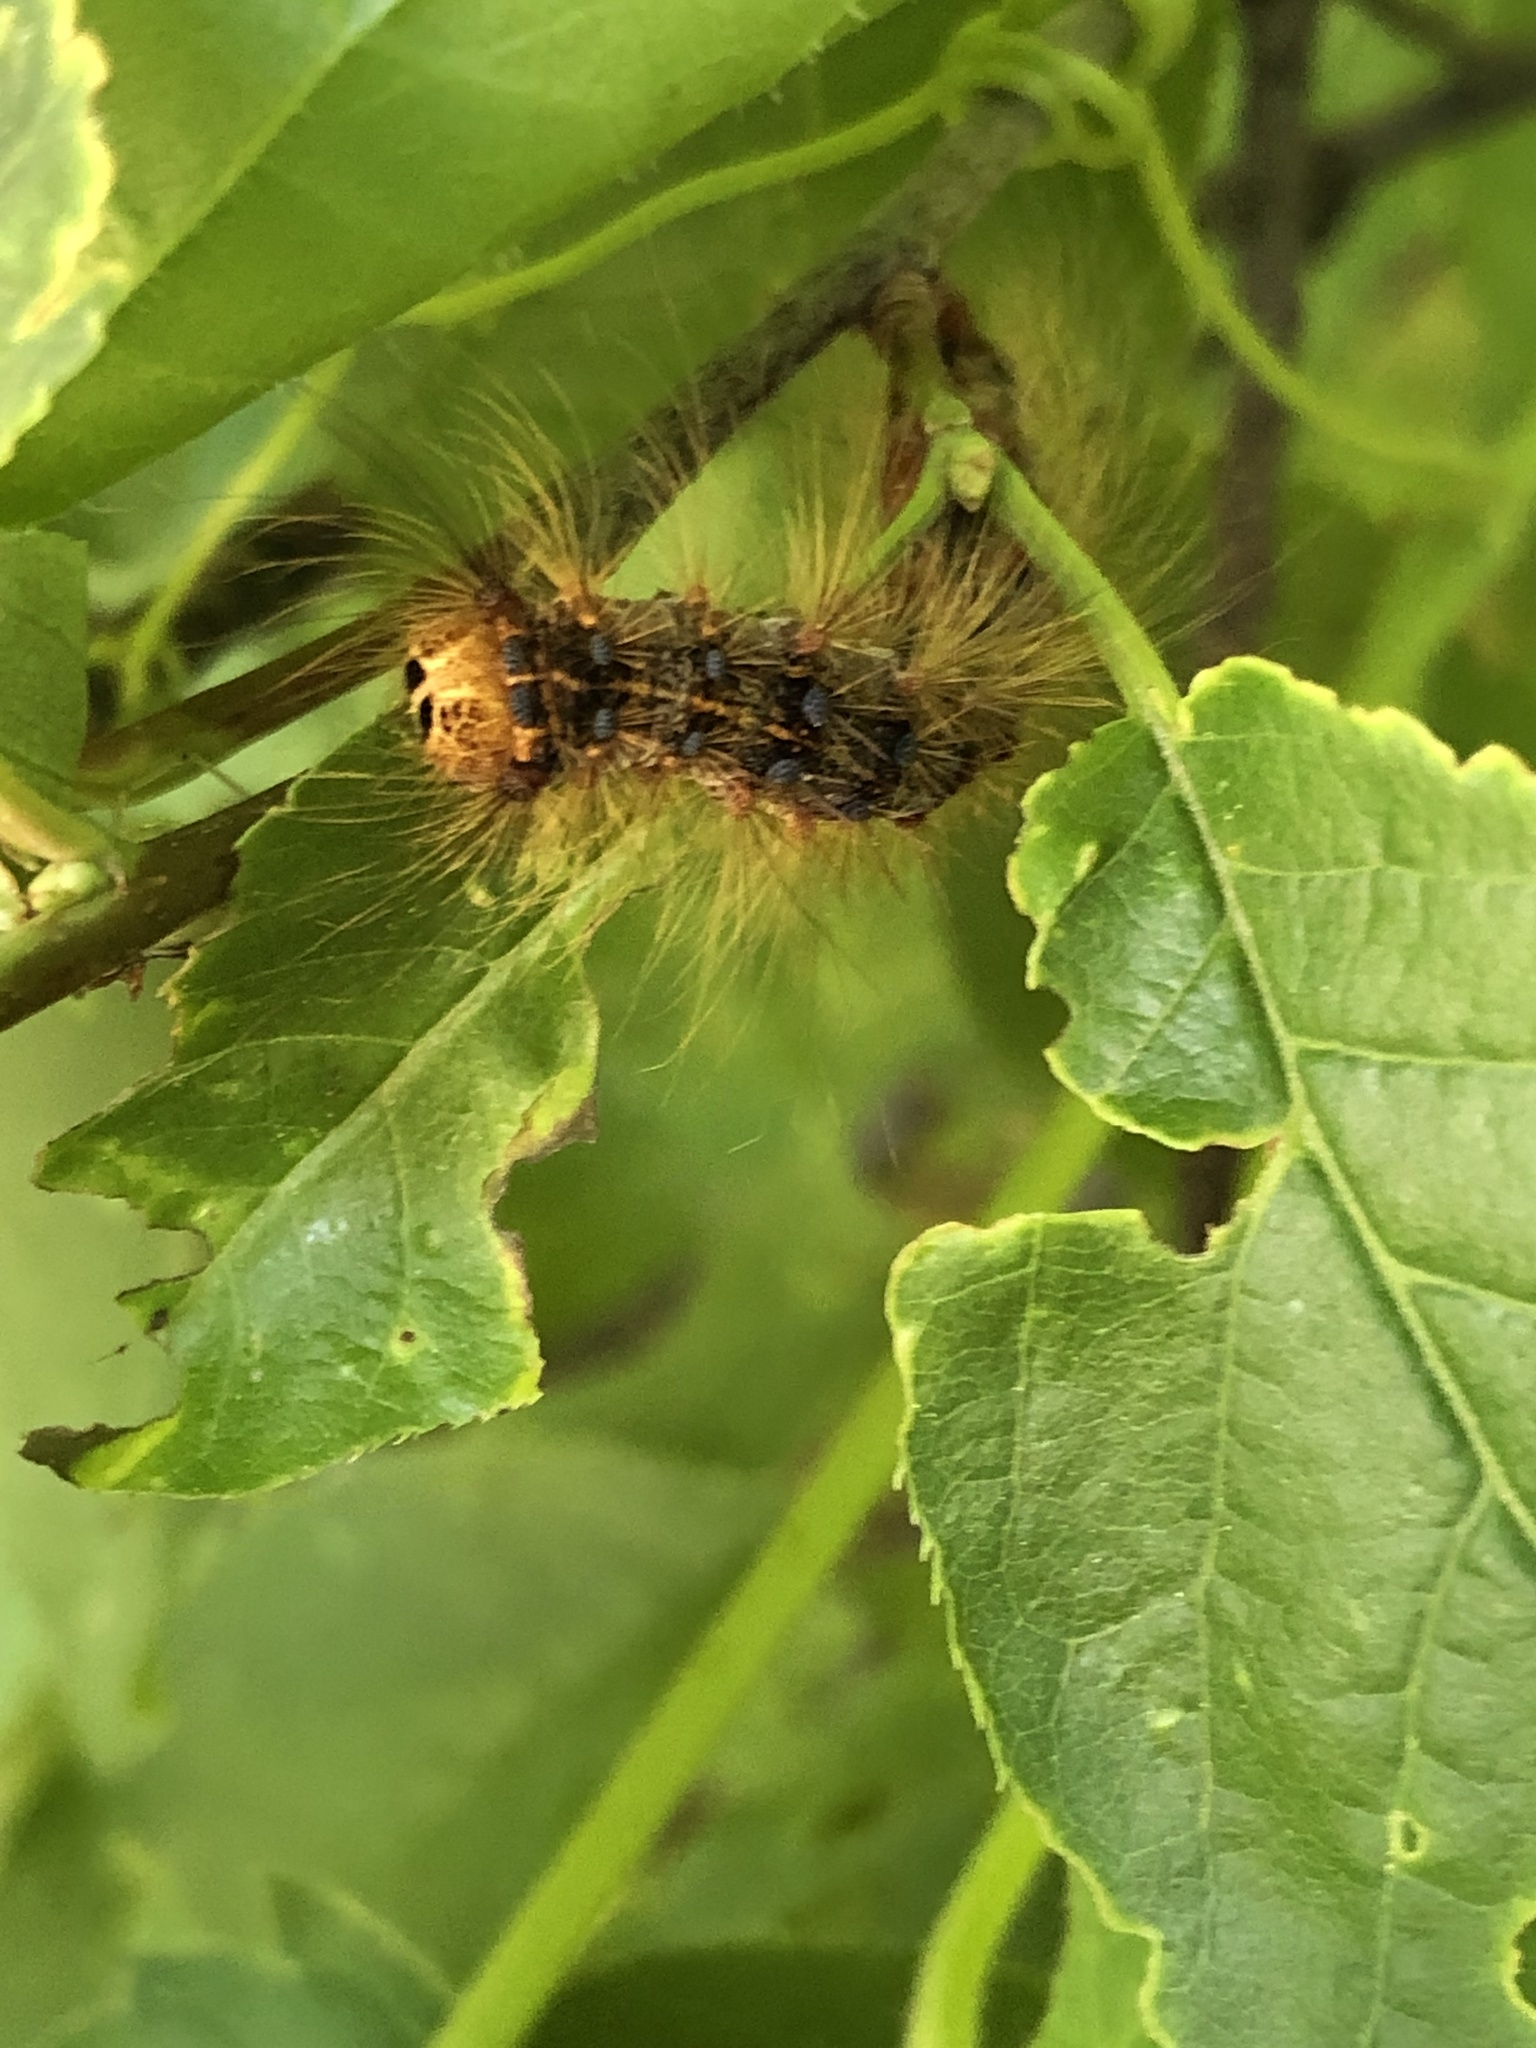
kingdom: Animalia
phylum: Arthropoda
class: Insecta
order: Lepidoptera
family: Erebidae
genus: Lymantria
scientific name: Lymantria dispar
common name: Gypsy moth
